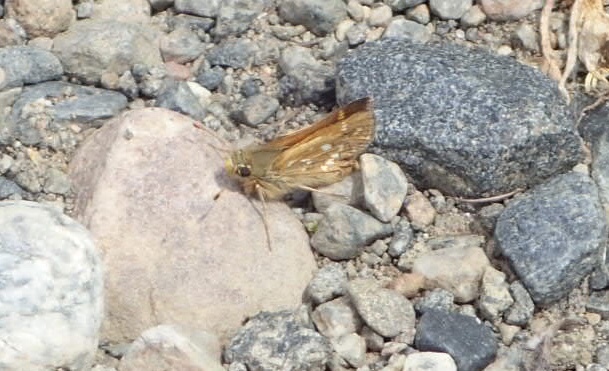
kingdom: Animalia
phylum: Arthropoda
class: Insecta
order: Lepidoptera
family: Hesperiidae
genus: Hesperia
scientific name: Hesperia comma
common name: Common branded skipper
